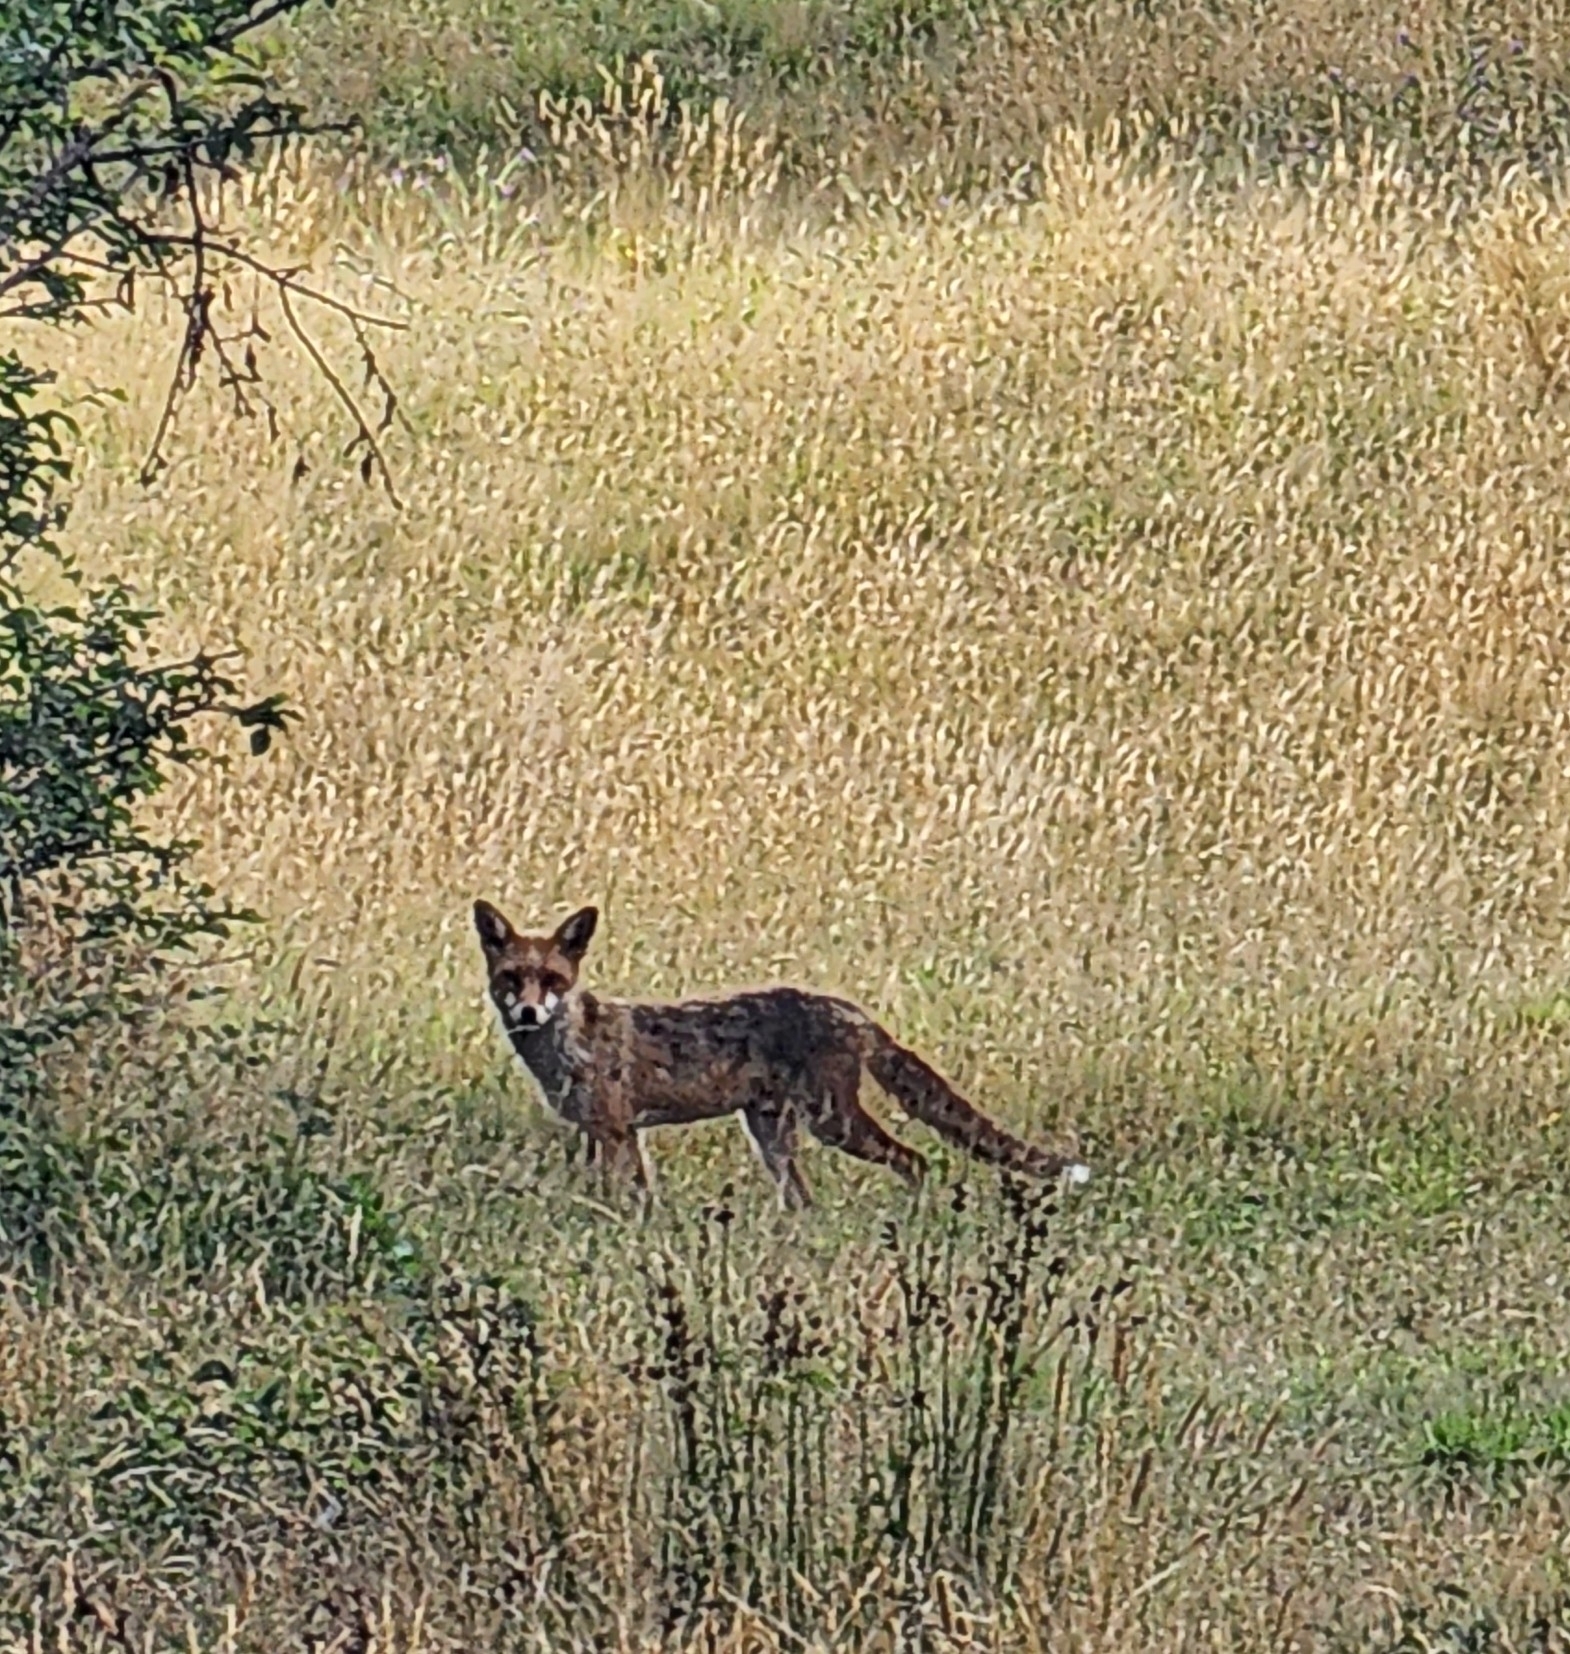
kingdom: Animalia
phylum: Chordata
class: Mammalia
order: Carnivora
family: Canidae
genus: Vulpes
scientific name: Vulpes vulpes
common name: Red fox
